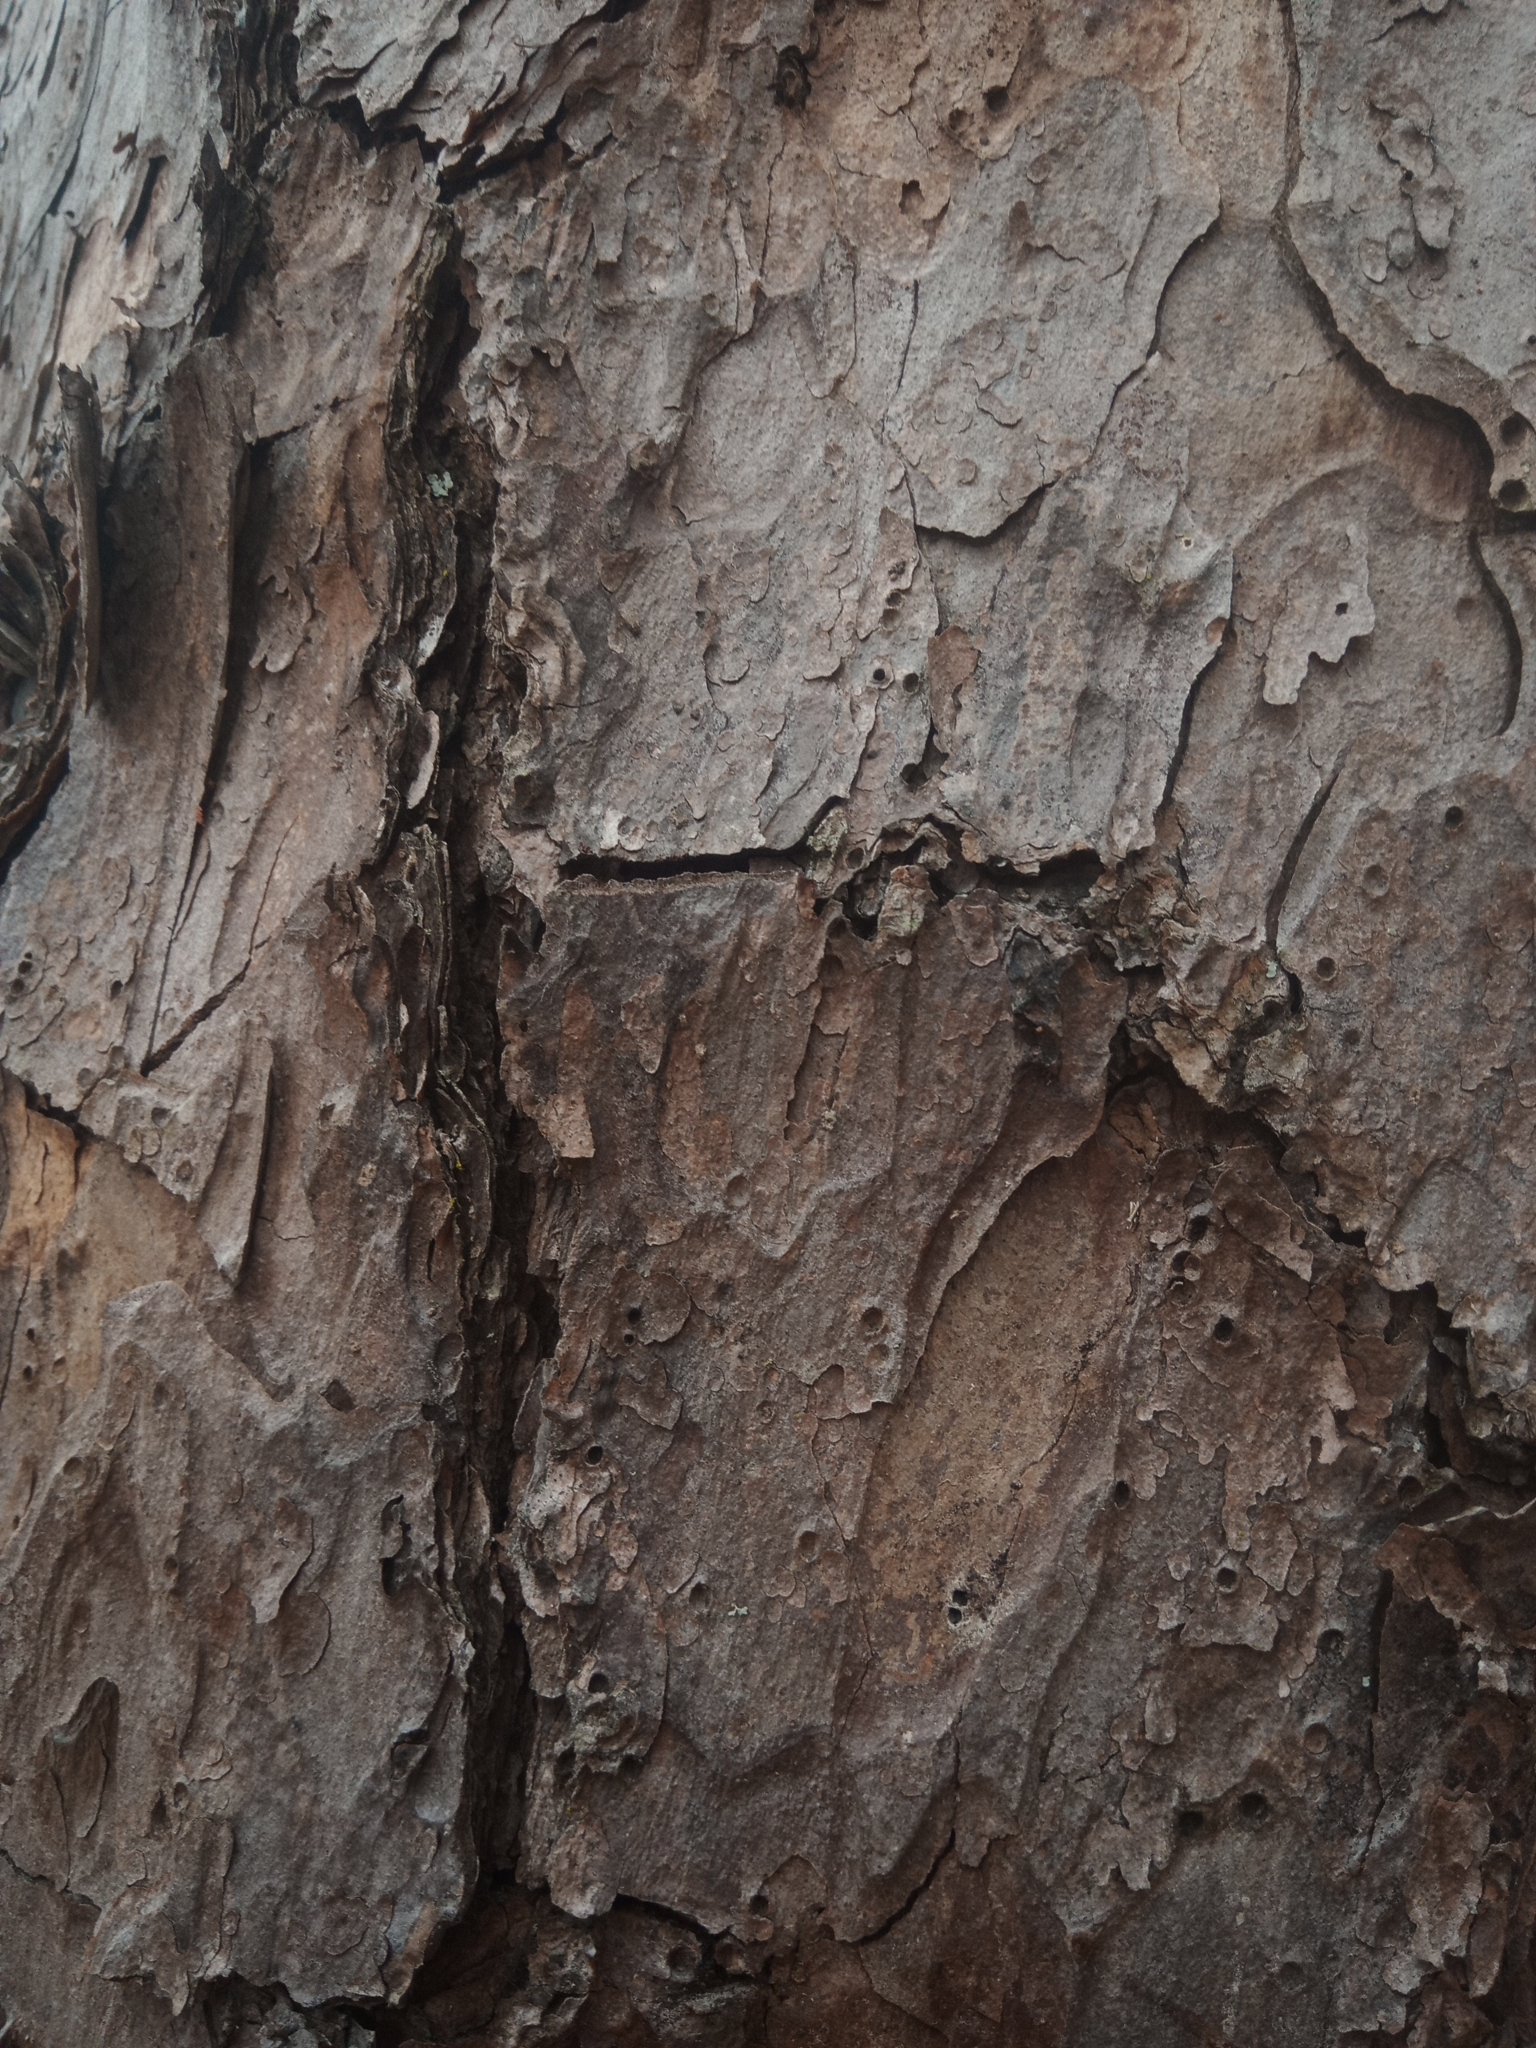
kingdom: Plantae
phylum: Tracheophyta
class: Pinopsida
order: Pinales
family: Pinaceae
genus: Pinus
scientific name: Pinus echinata
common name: Shortleaf pine
